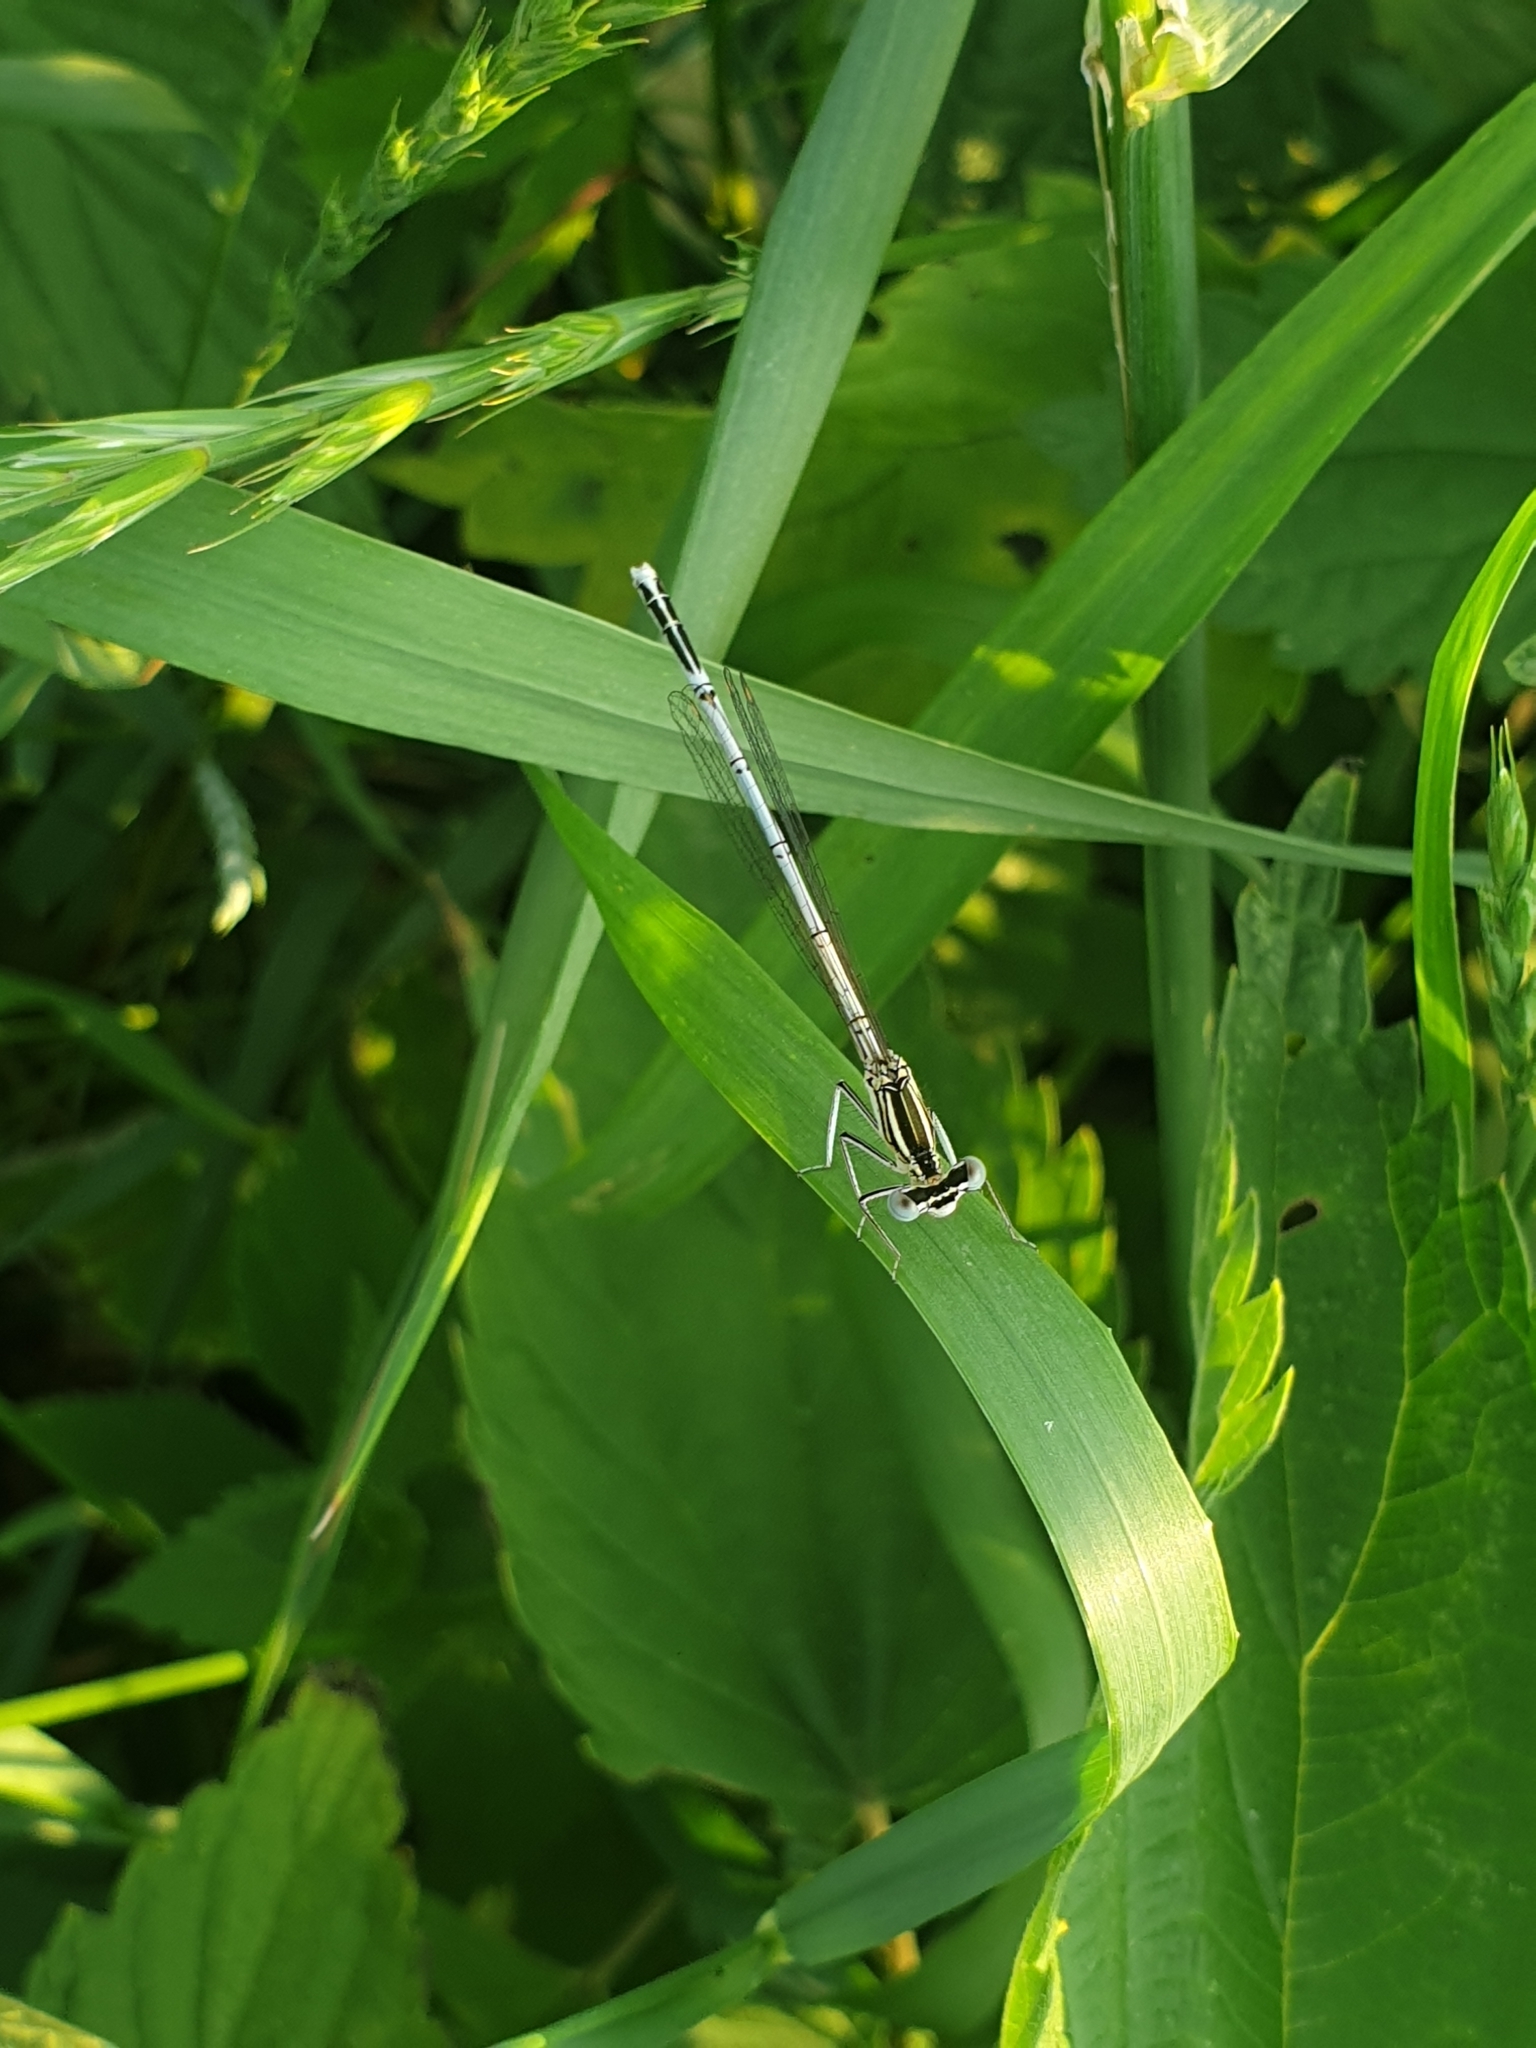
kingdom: Animalia
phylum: Arthropoda
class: Insecta
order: Odonata
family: Platycnemididae
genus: Platycnemis
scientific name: Platycnemis pennipes
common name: White-legged damselfly
